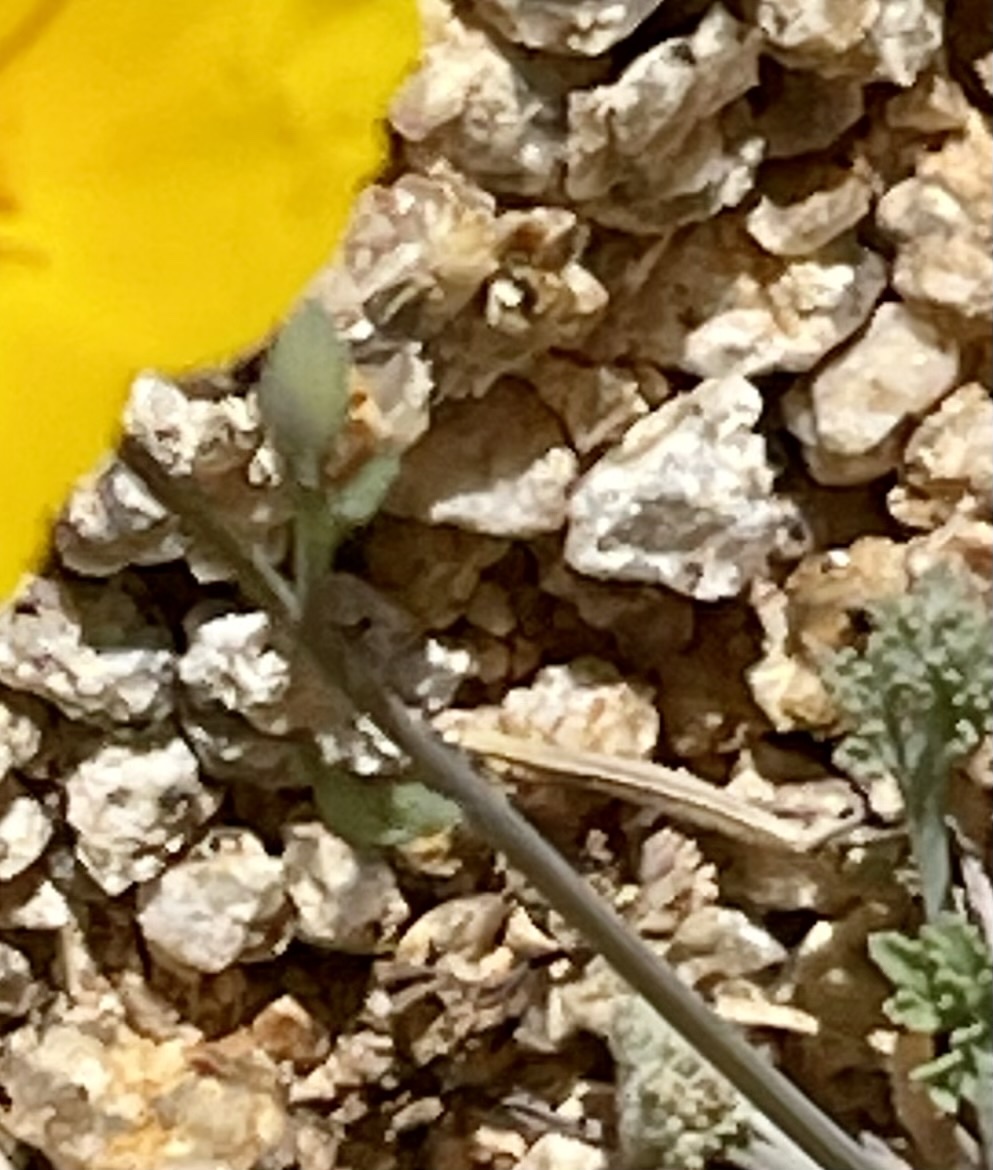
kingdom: Plantae
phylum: Tracheophyta
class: Magnoliopsida
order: Ranunculales
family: Papaveraceae
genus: Eschscholzia
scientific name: Eschscholzia androuxii
